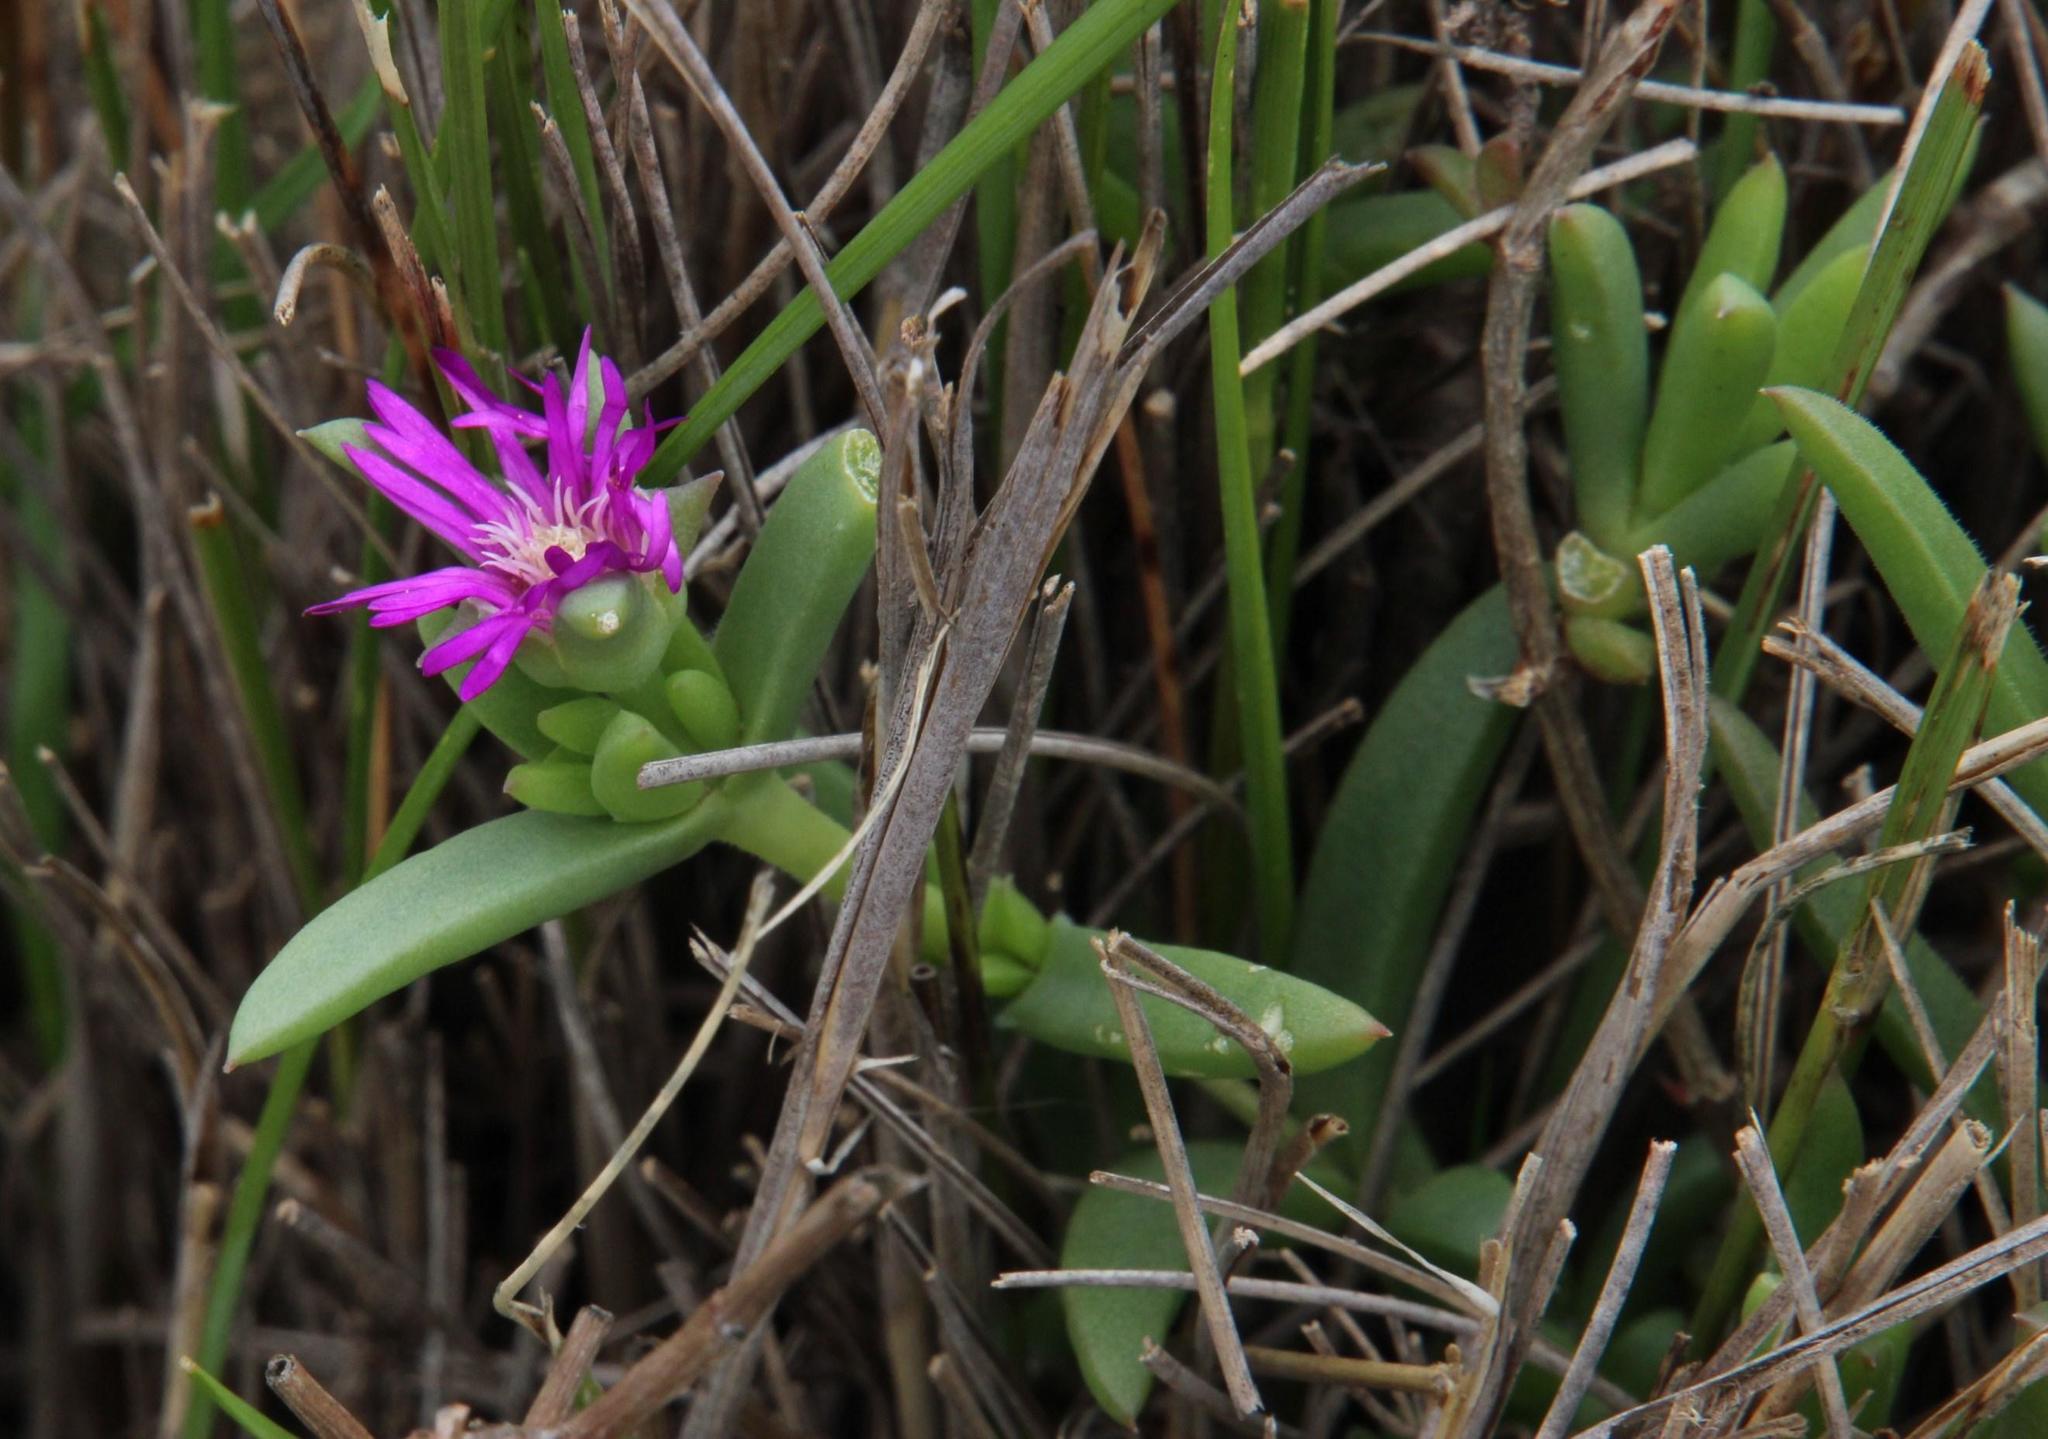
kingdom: Plantae
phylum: Tracheophyta
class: Magnoliopsida
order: Caryophyllales
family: Aizoaceae
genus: Delosperma
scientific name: Delosperma cloeteae
